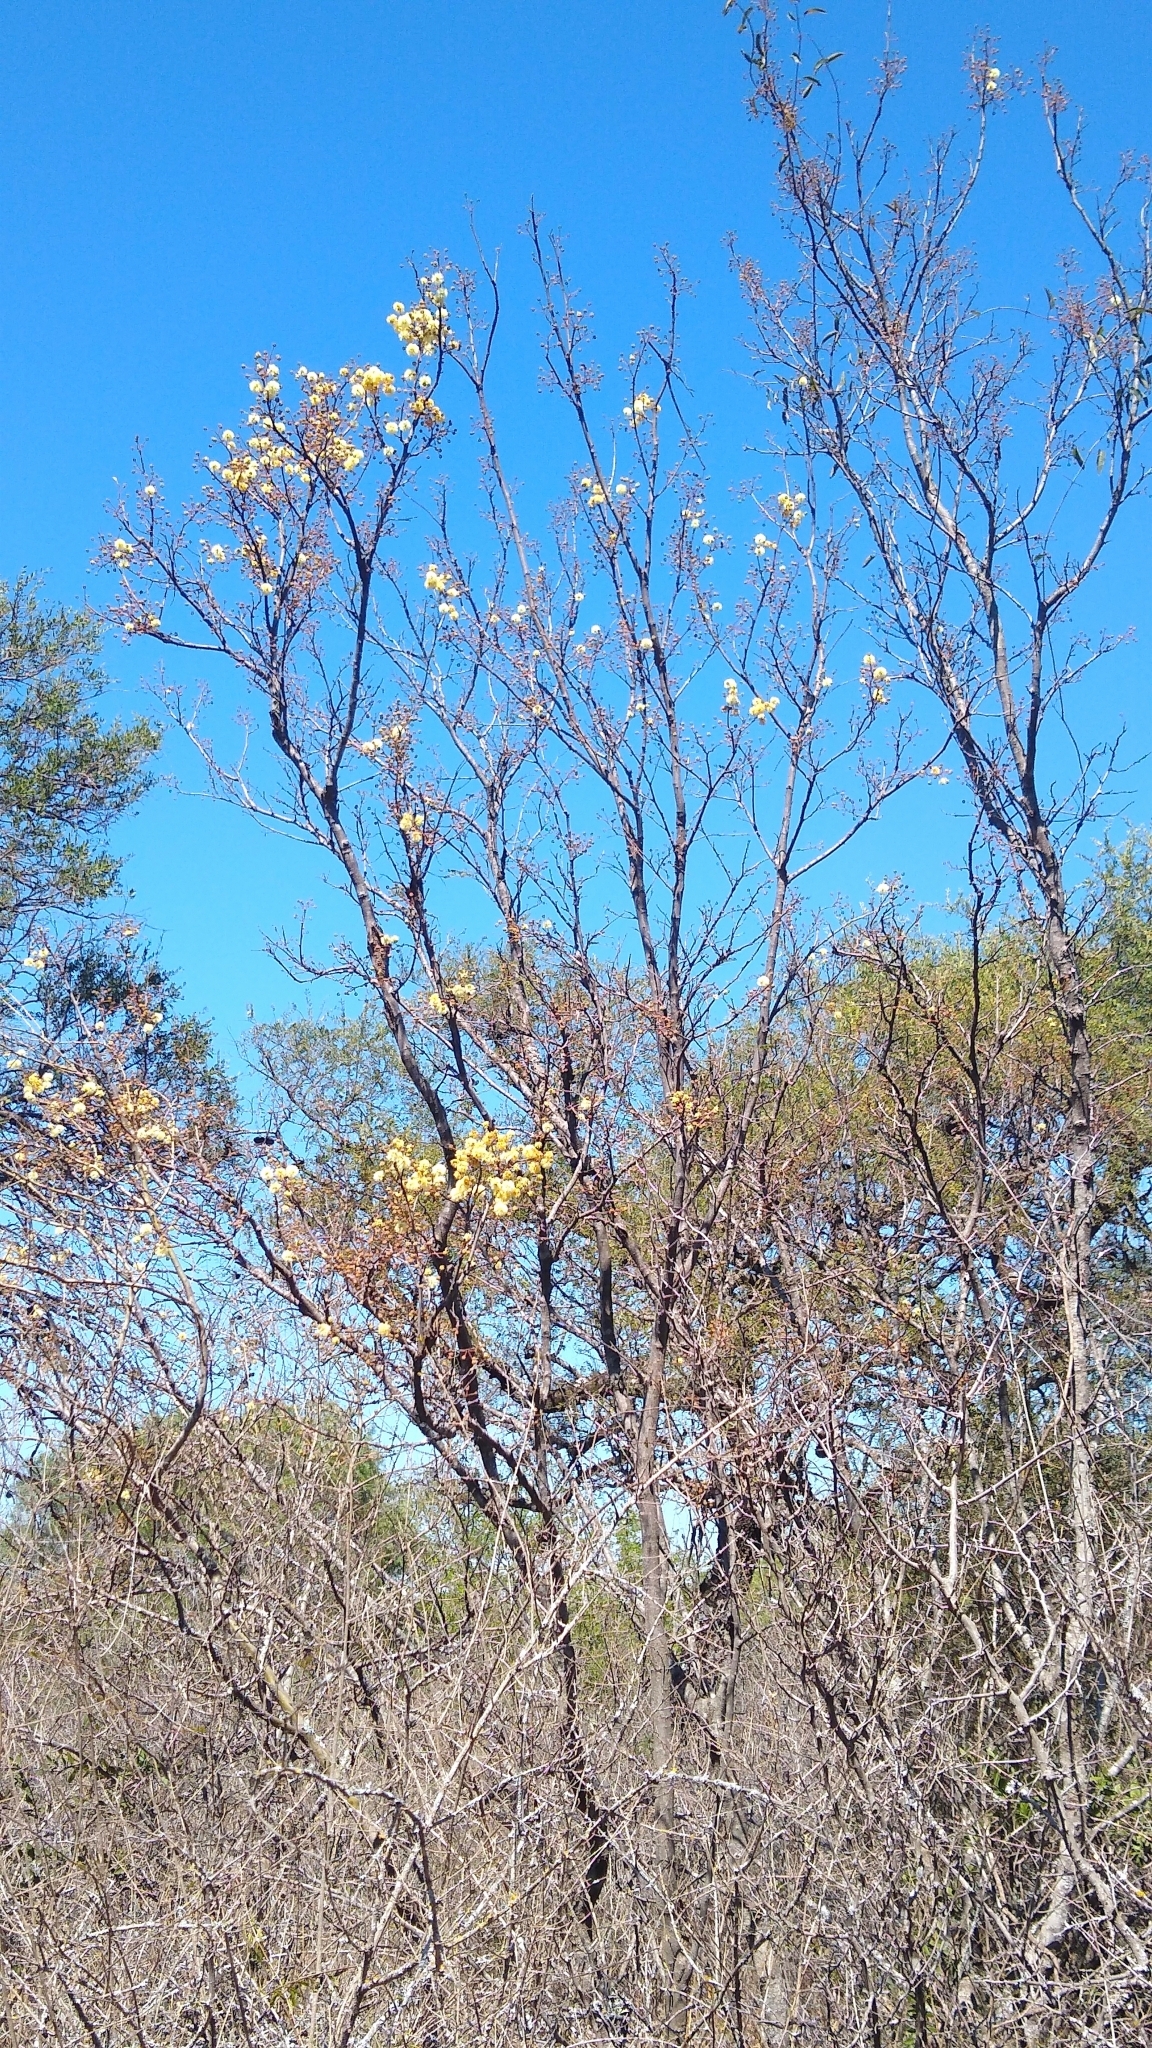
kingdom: Plantae
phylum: Tracheophyta
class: Magnoliopsida
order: Fabales
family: Fabaceae
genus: Senegalia
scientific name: Senegalia praecox
